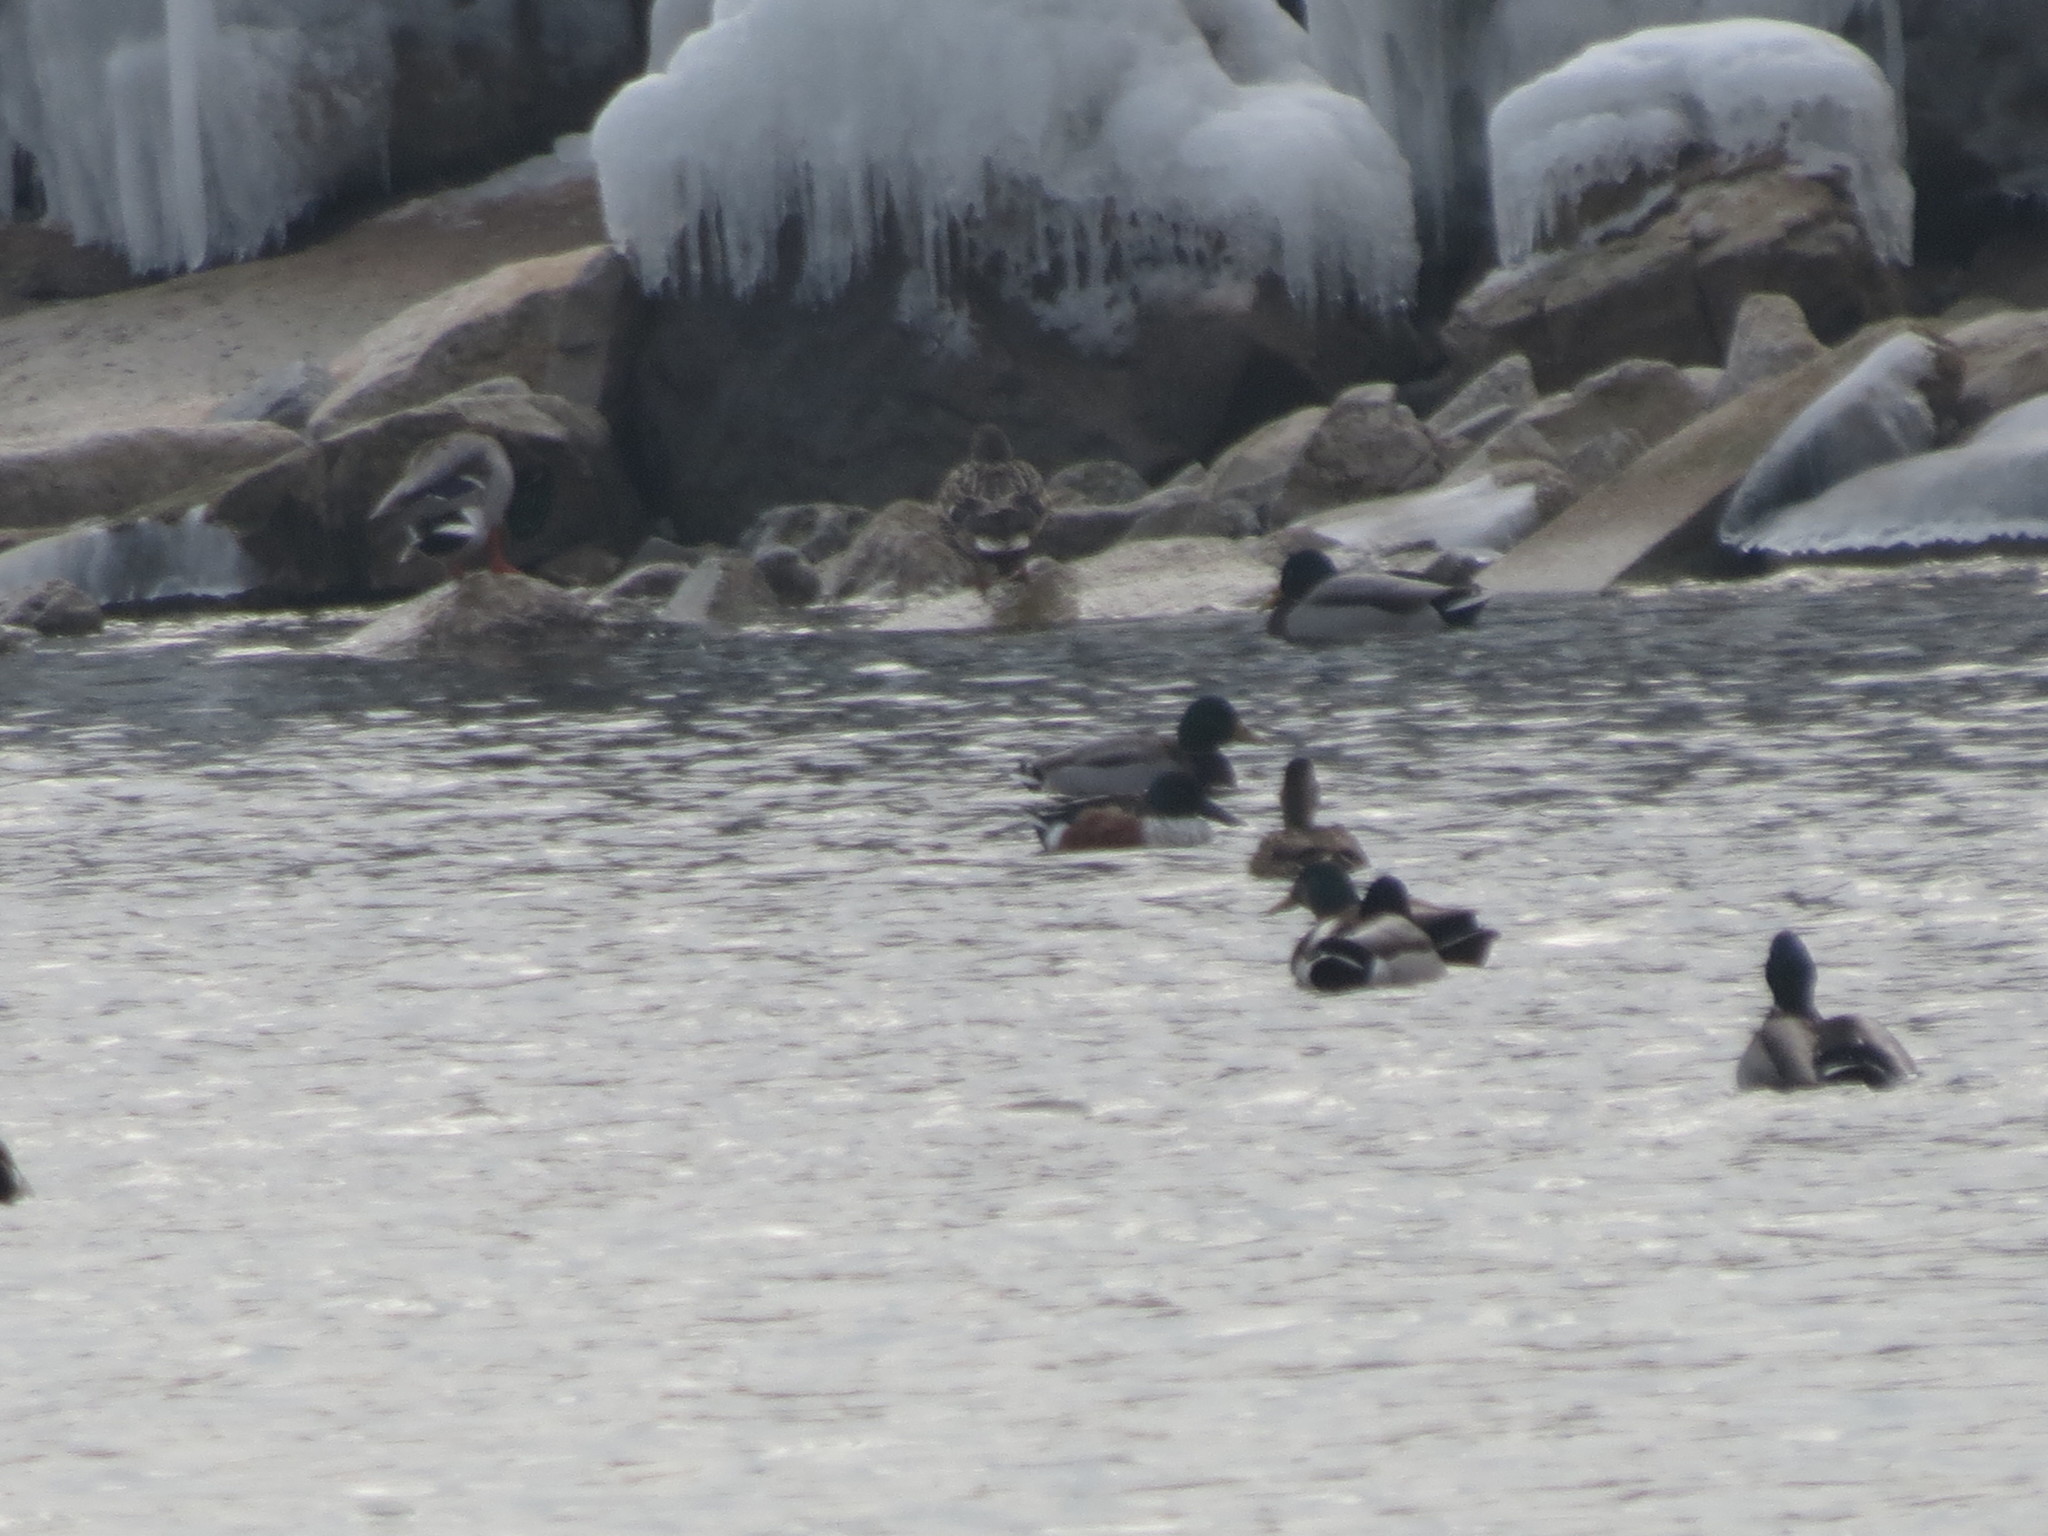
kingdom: Animalia
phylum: Chordata
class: Aves
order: Anseriformes
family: Anatidae
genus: Spatula
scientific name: Spatula clypeata
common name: Northern shoveler
